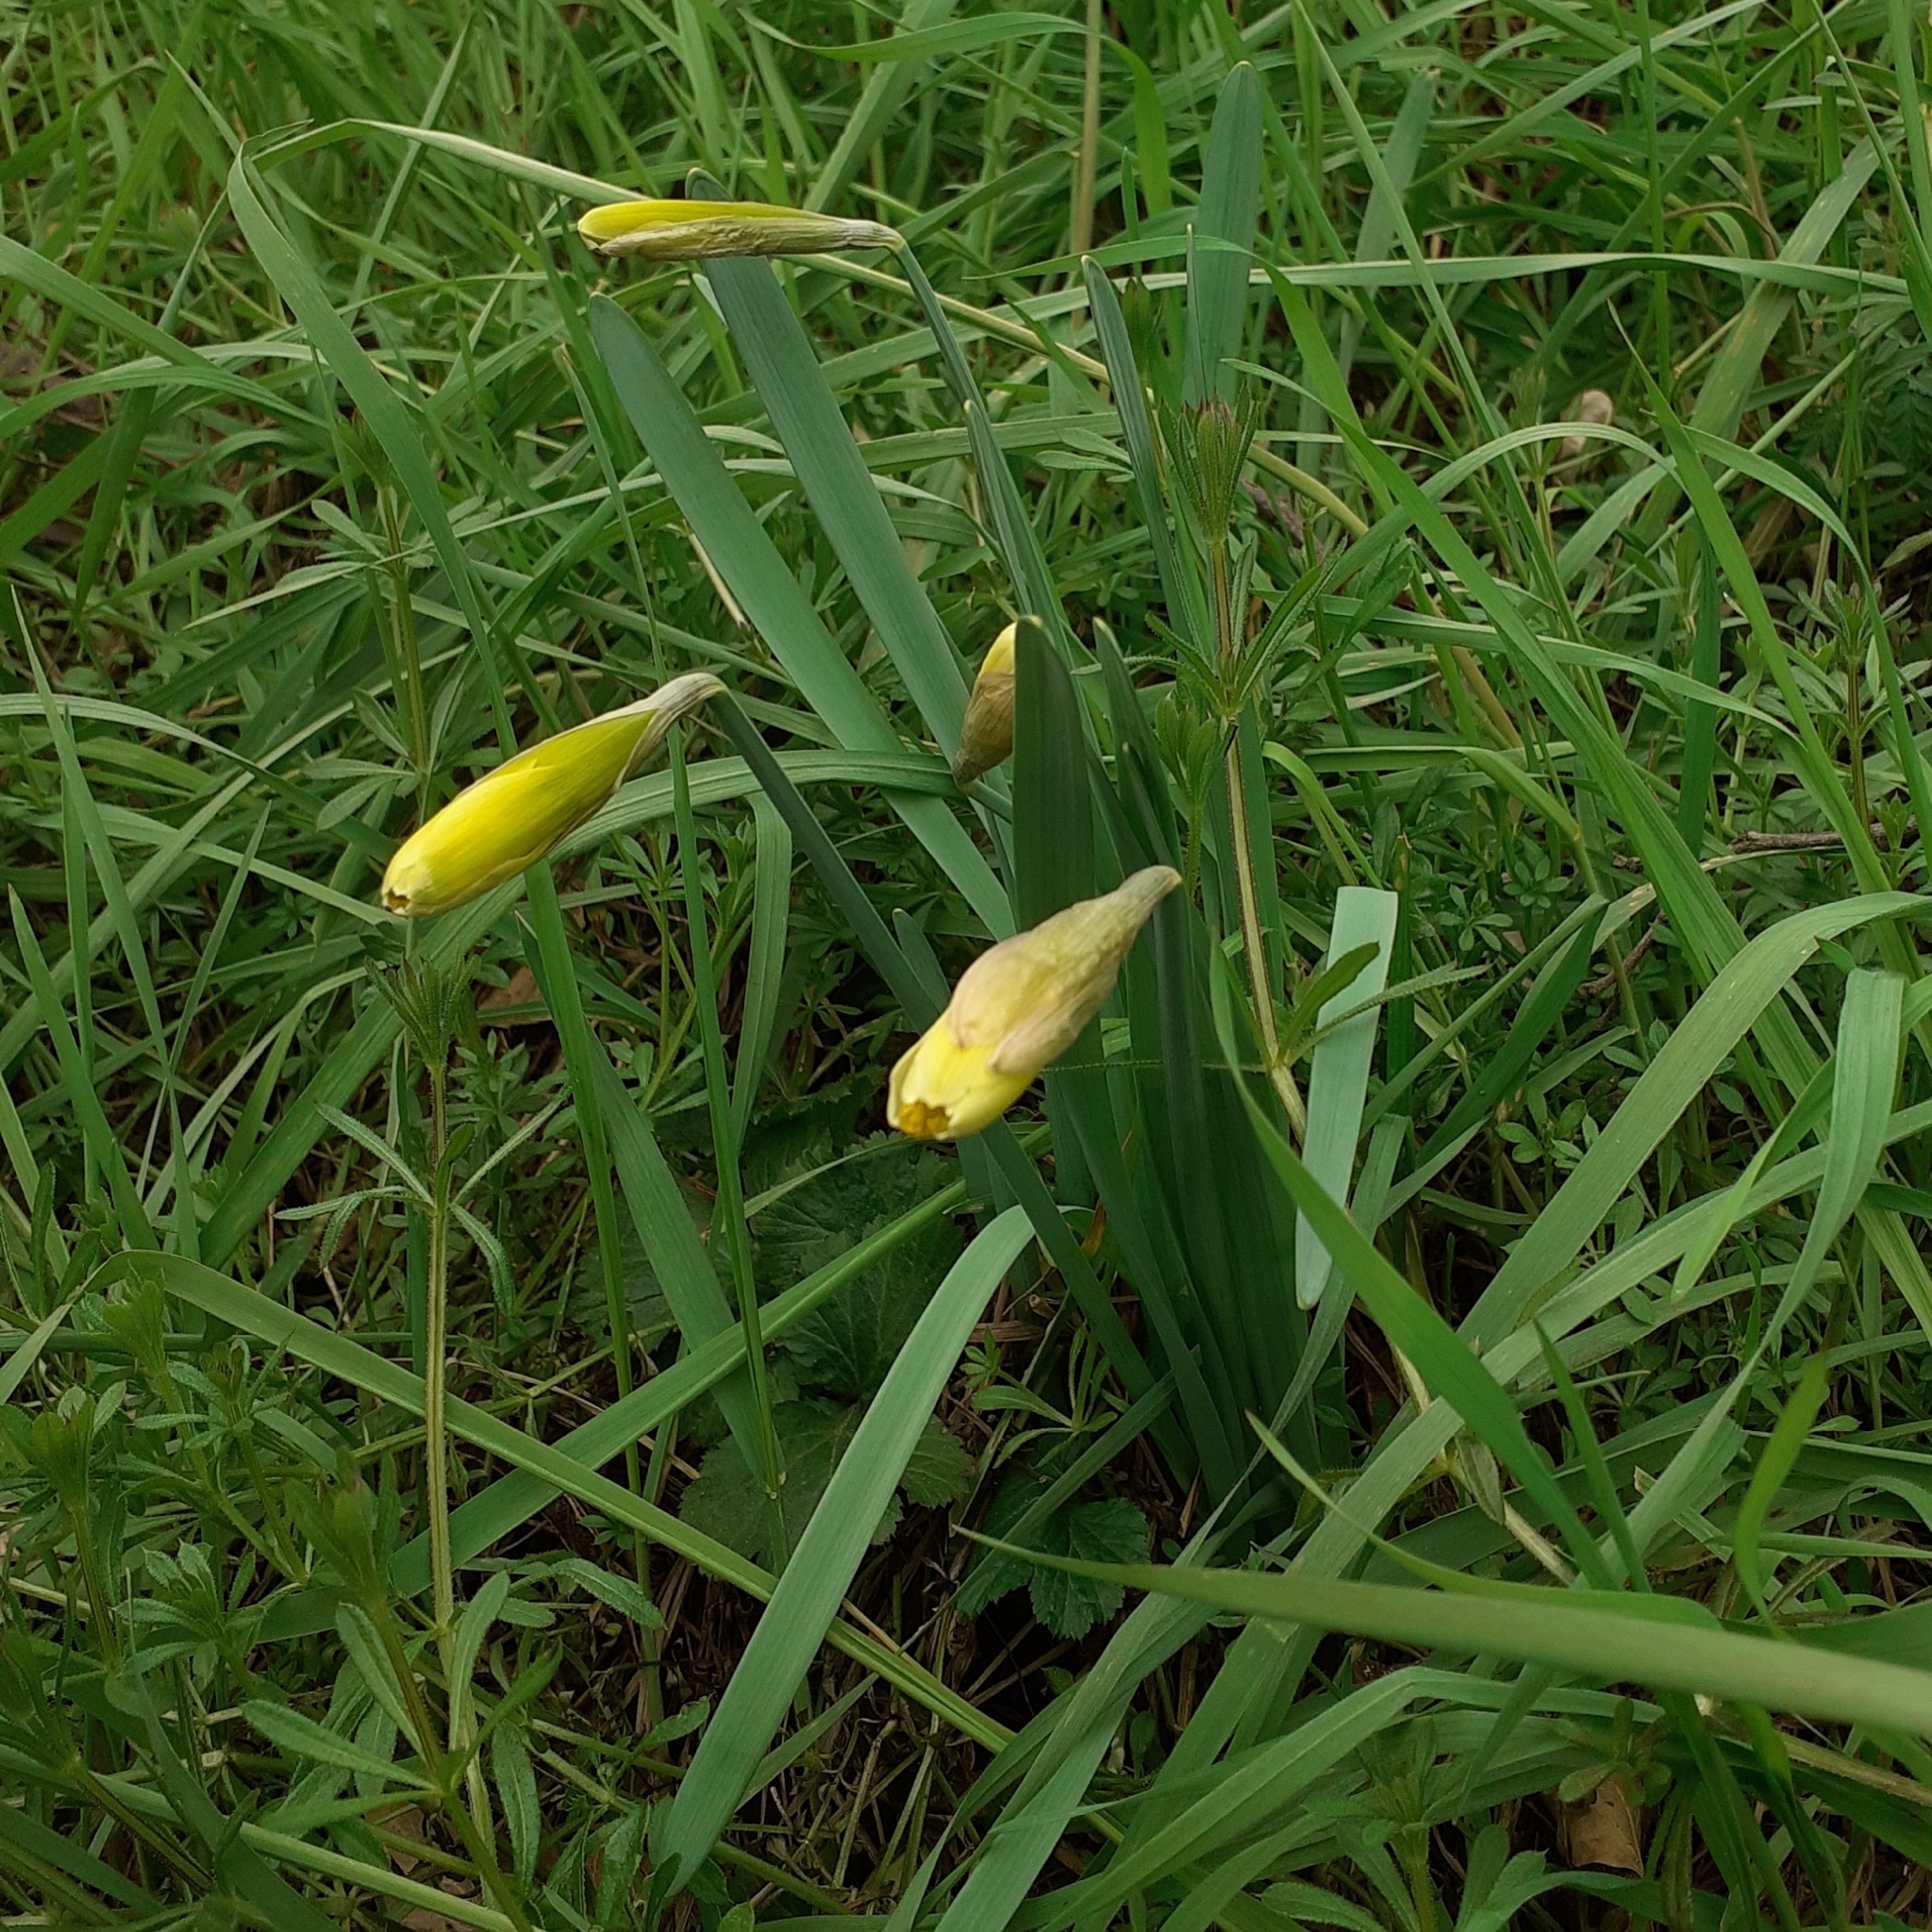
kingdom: Plantae
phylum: Tracheophyta
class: Liliopsida
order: Asparagales
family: Amaryllidaceae
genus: Narcissus
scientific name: Narcissus pseudonarcissus
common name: Daffodil
